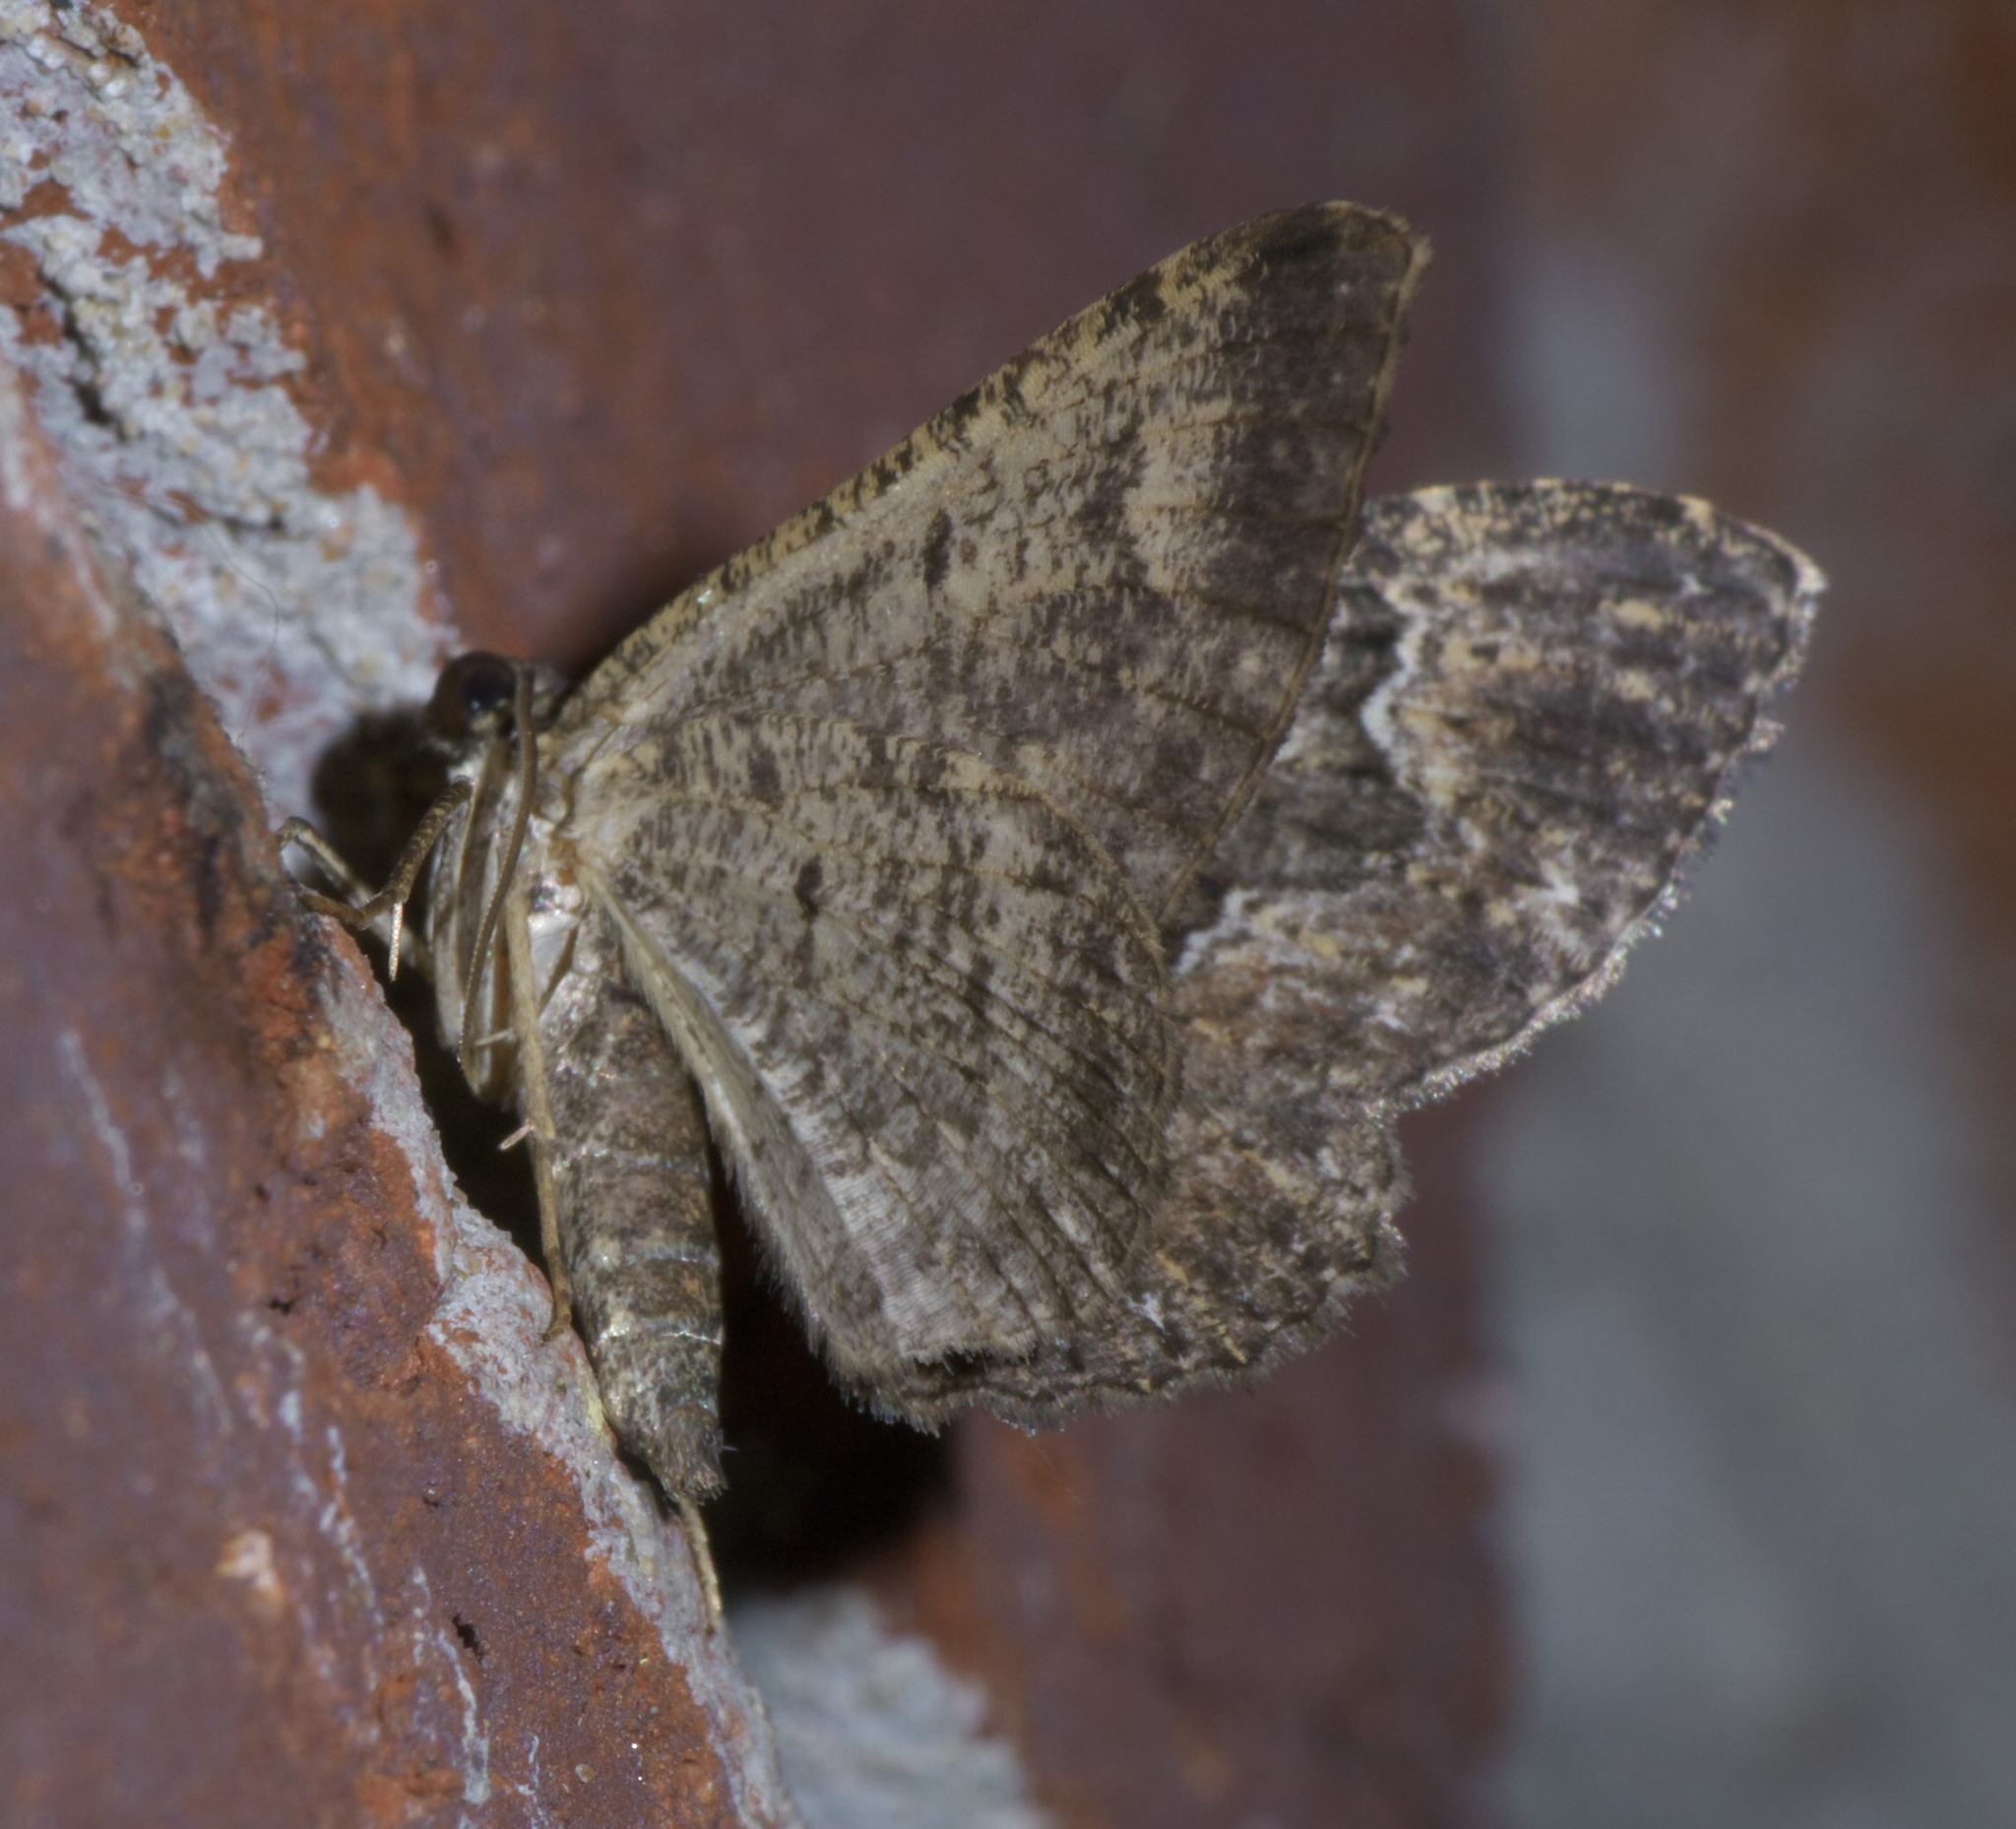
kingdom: Animalia
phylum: Arthropoda
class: Insecta
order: Lepidoptera
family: Geometridae
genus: Disclisioprocta
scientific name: Disclisioprocta stellata
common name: Somber carpet
